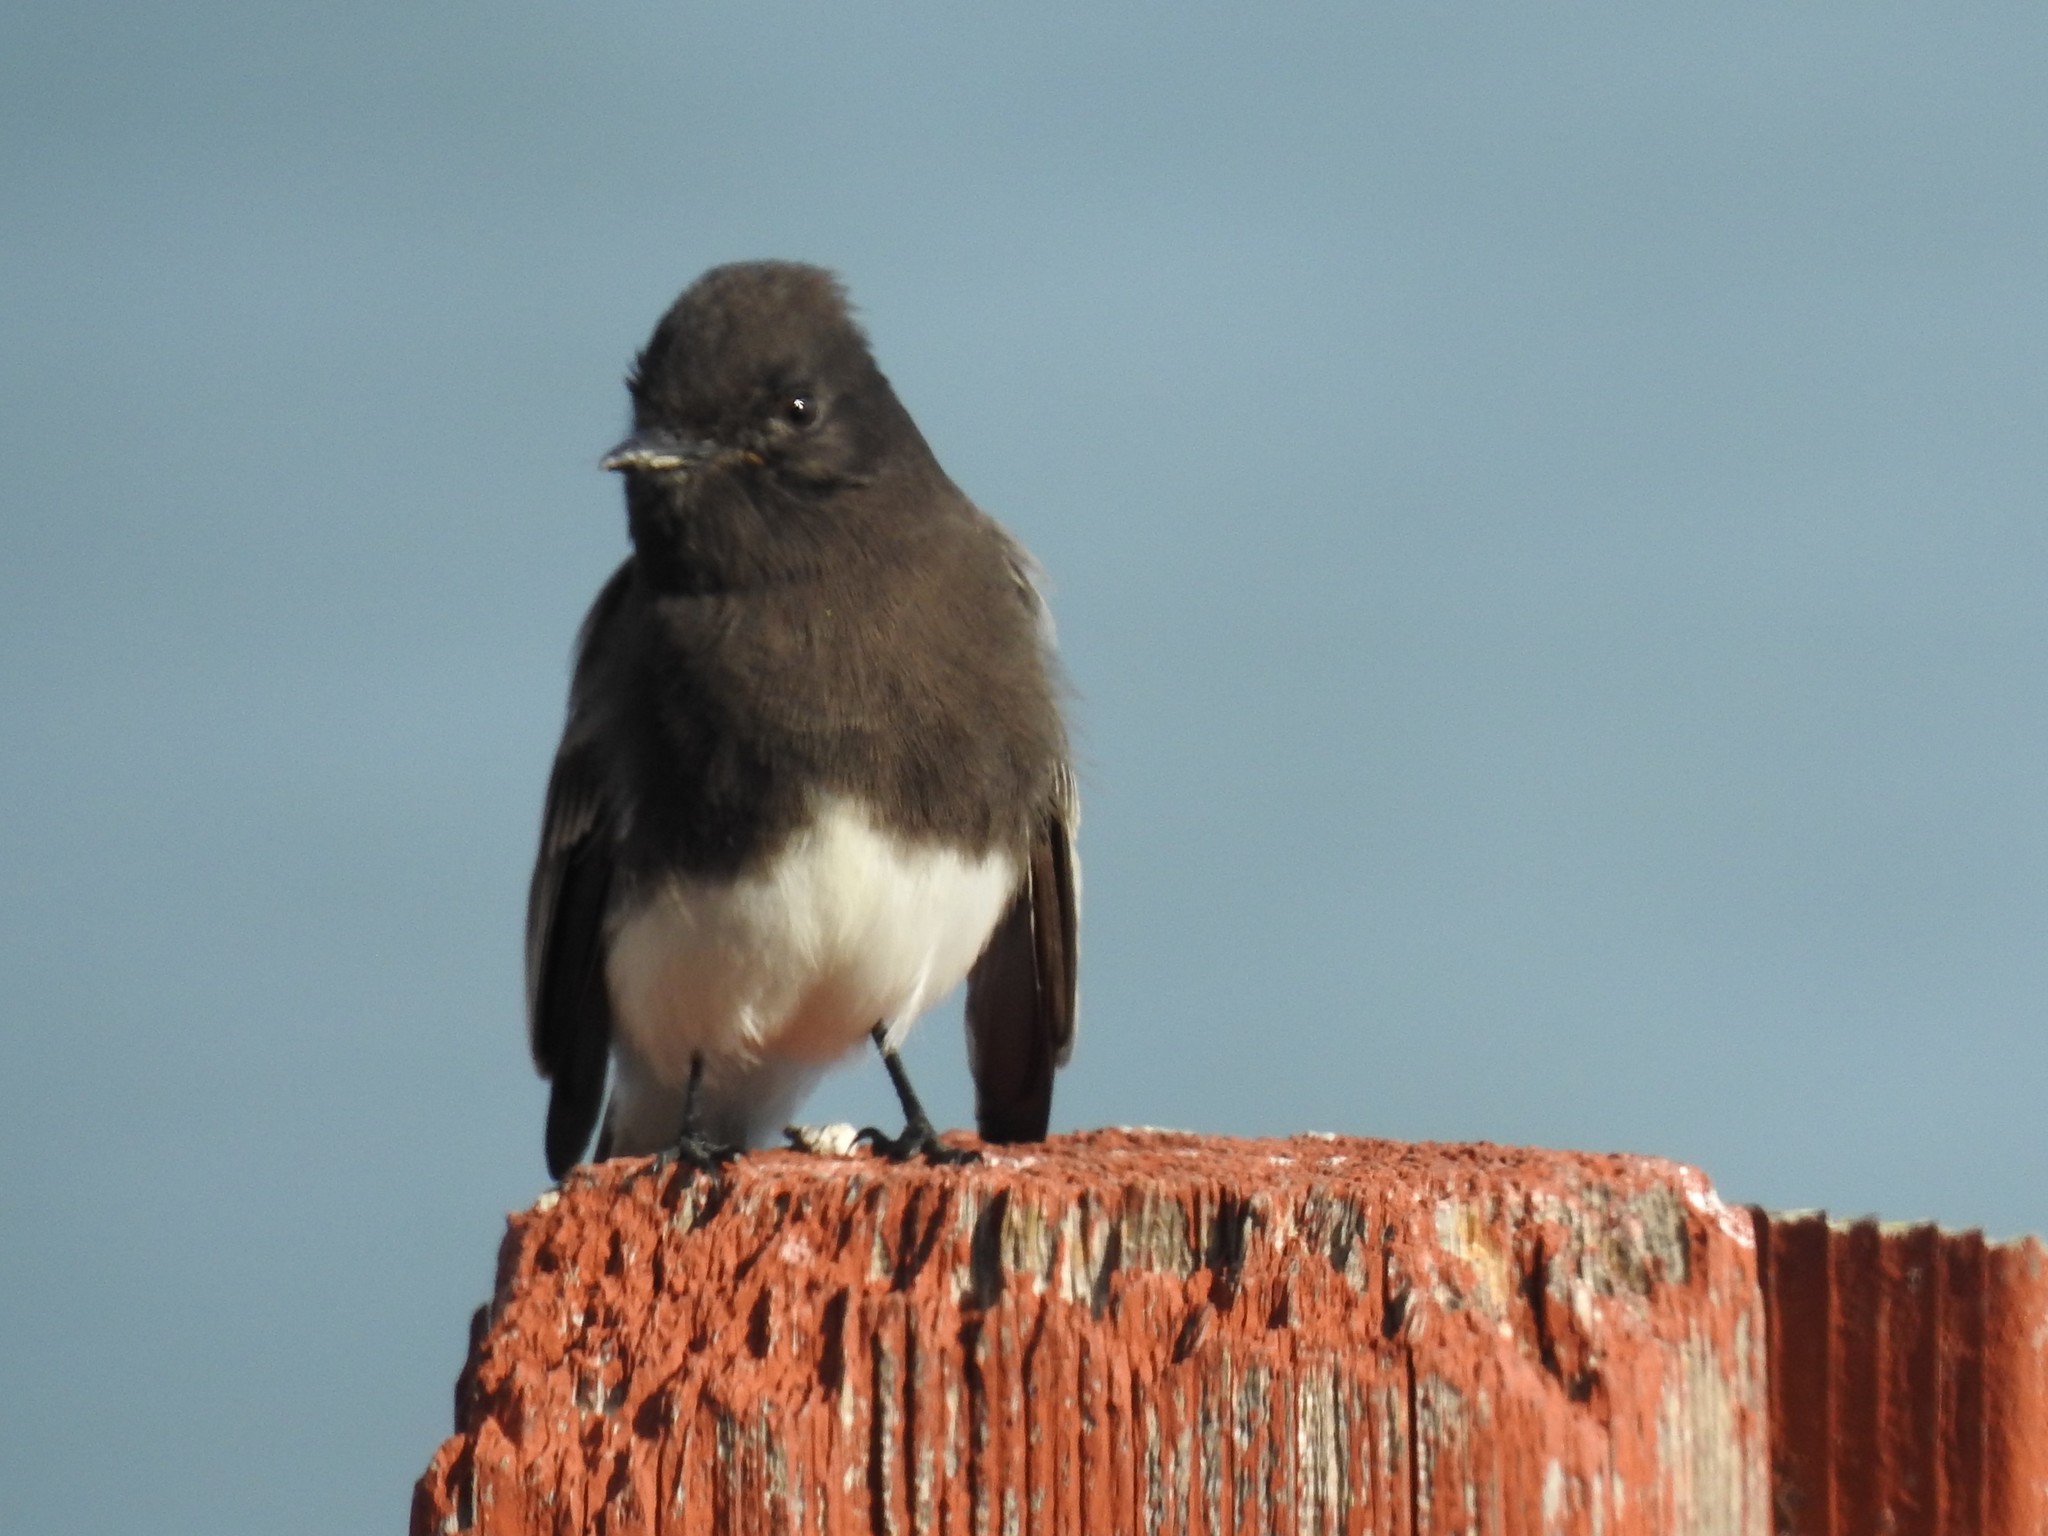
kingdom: Animalia
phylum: Chordata
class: Aves
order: Passeriformes
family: Tyrannidae
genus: Sayornis
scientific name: Sayornis nigricans
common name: Black phoebe
